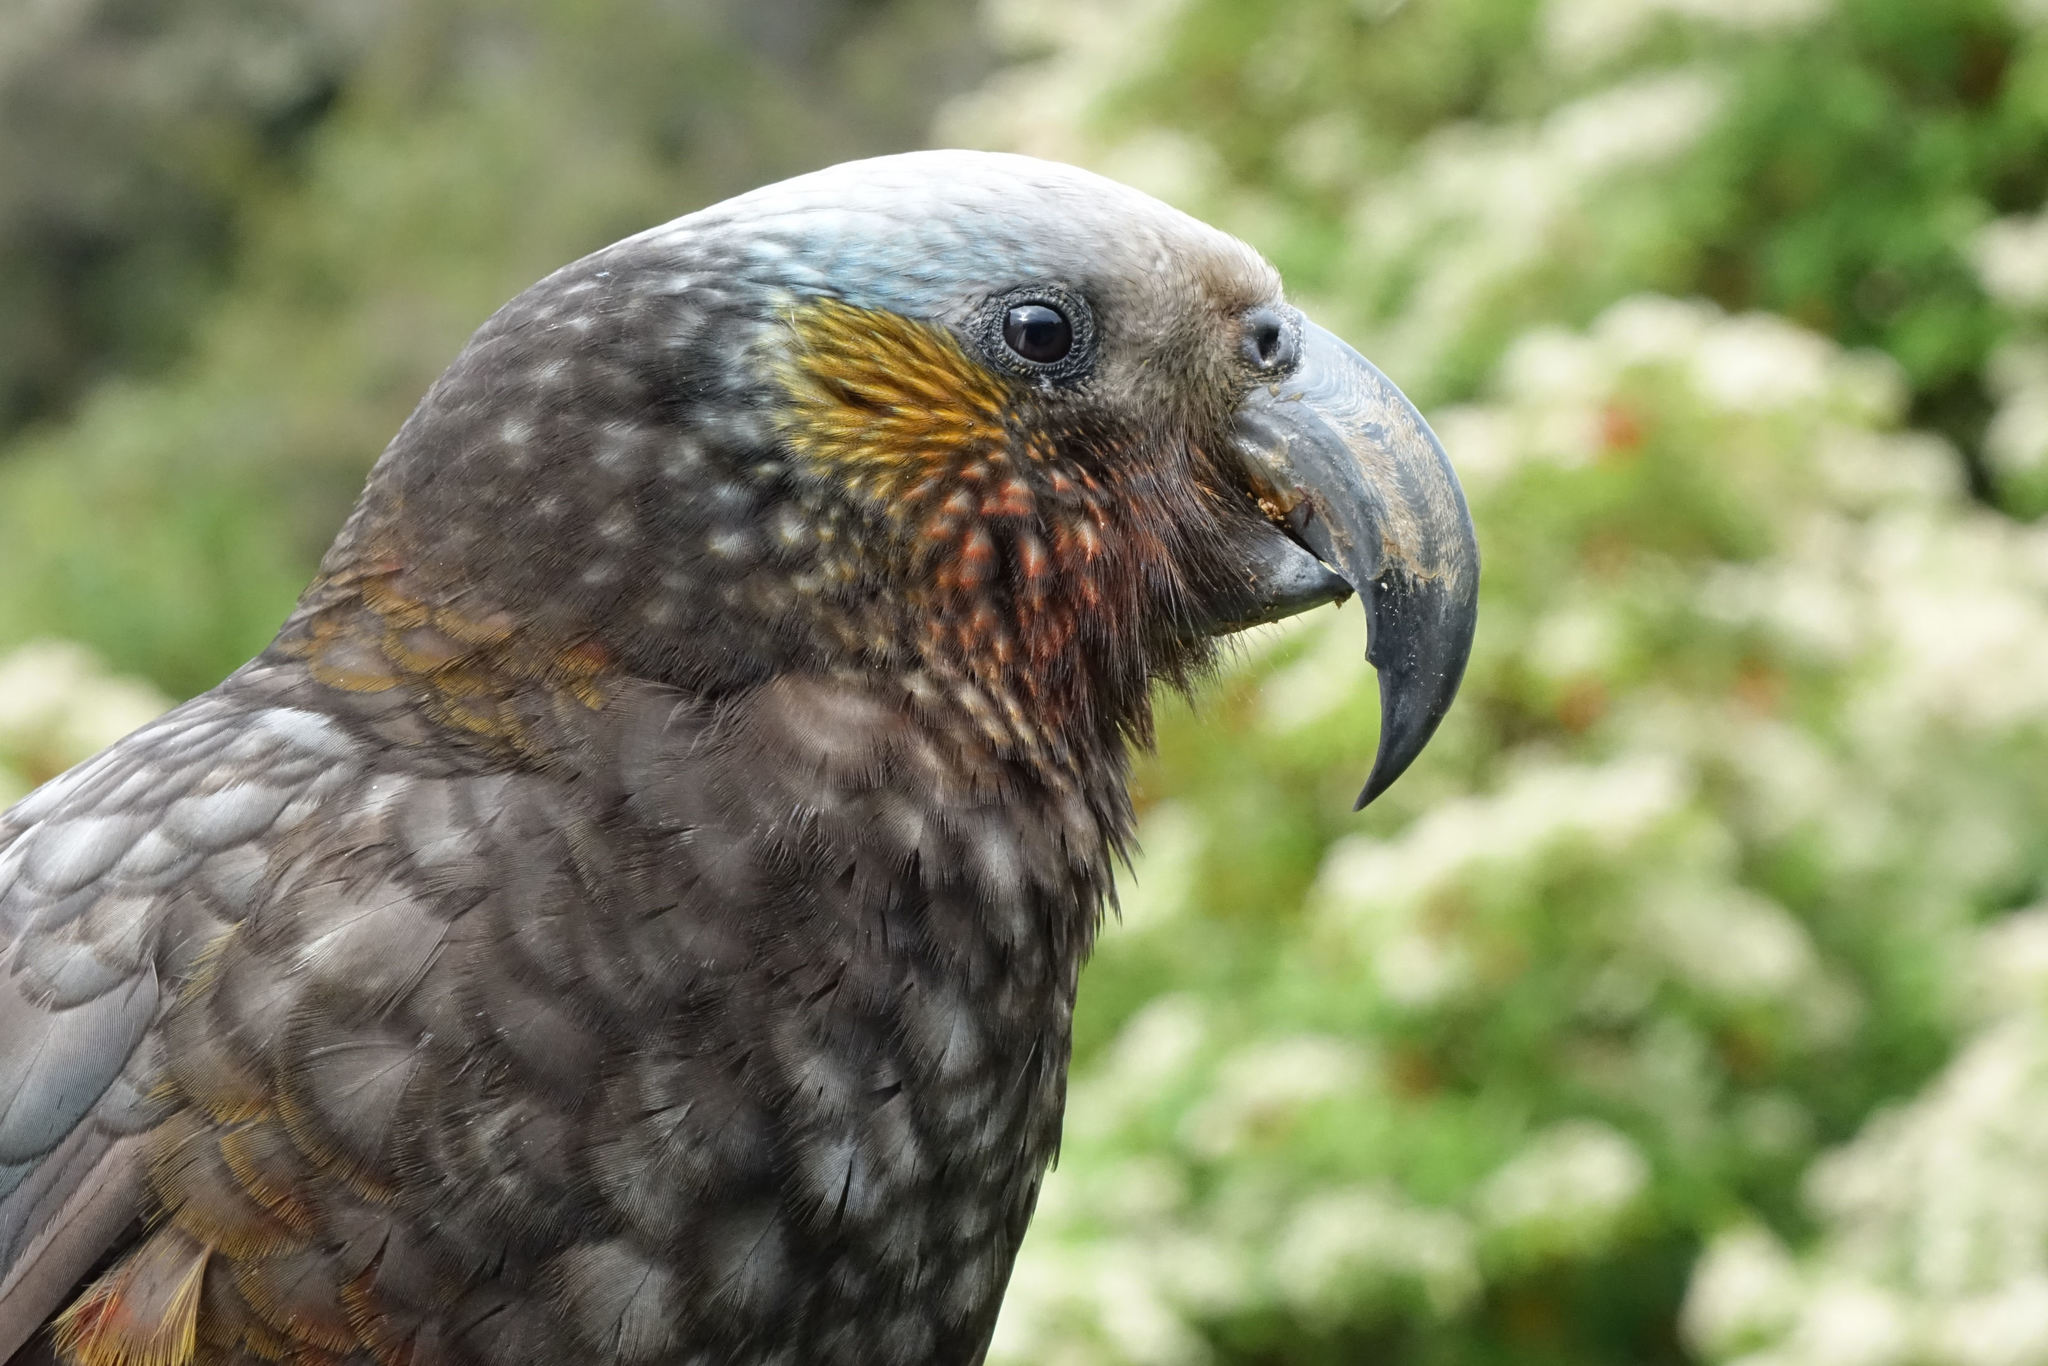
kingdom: Animalia
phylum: Chordata
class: Aves
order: Psittaciformes
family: Psittacidae
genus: Nestor
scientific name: Nestor meridionalis
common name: New zealand kaka
